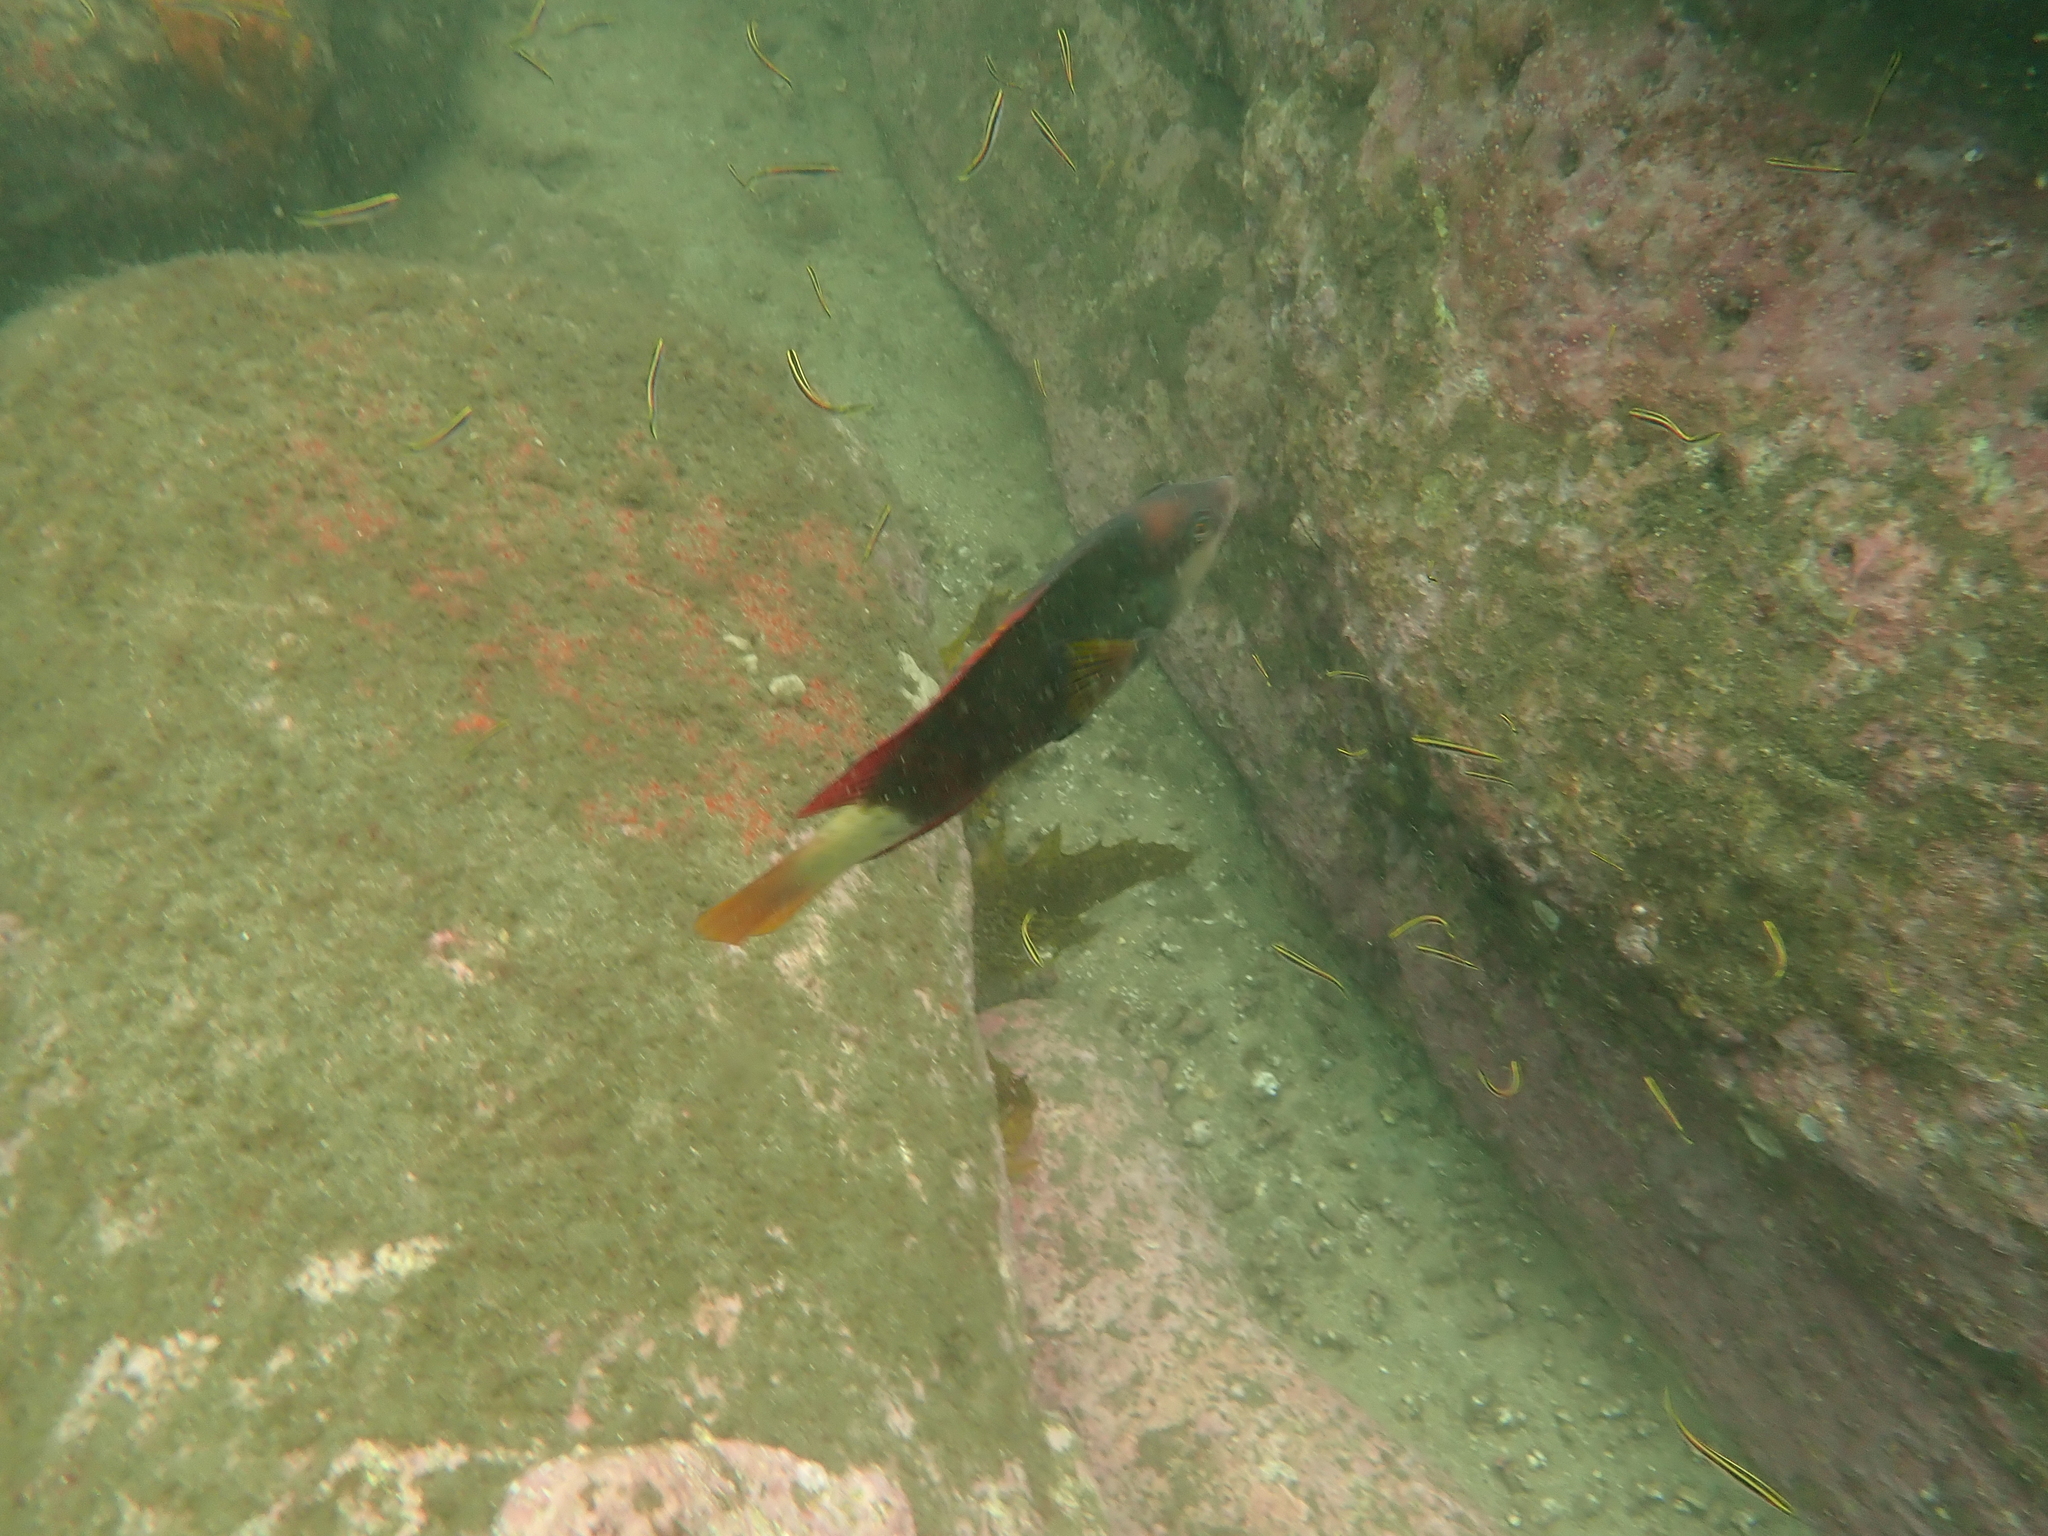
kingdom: Animalia
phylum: Chordata
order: Perciformes
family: Labridae
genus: Notolabrus
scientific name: Notolabrus gymnogenis
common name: Crimson banded wrasse
